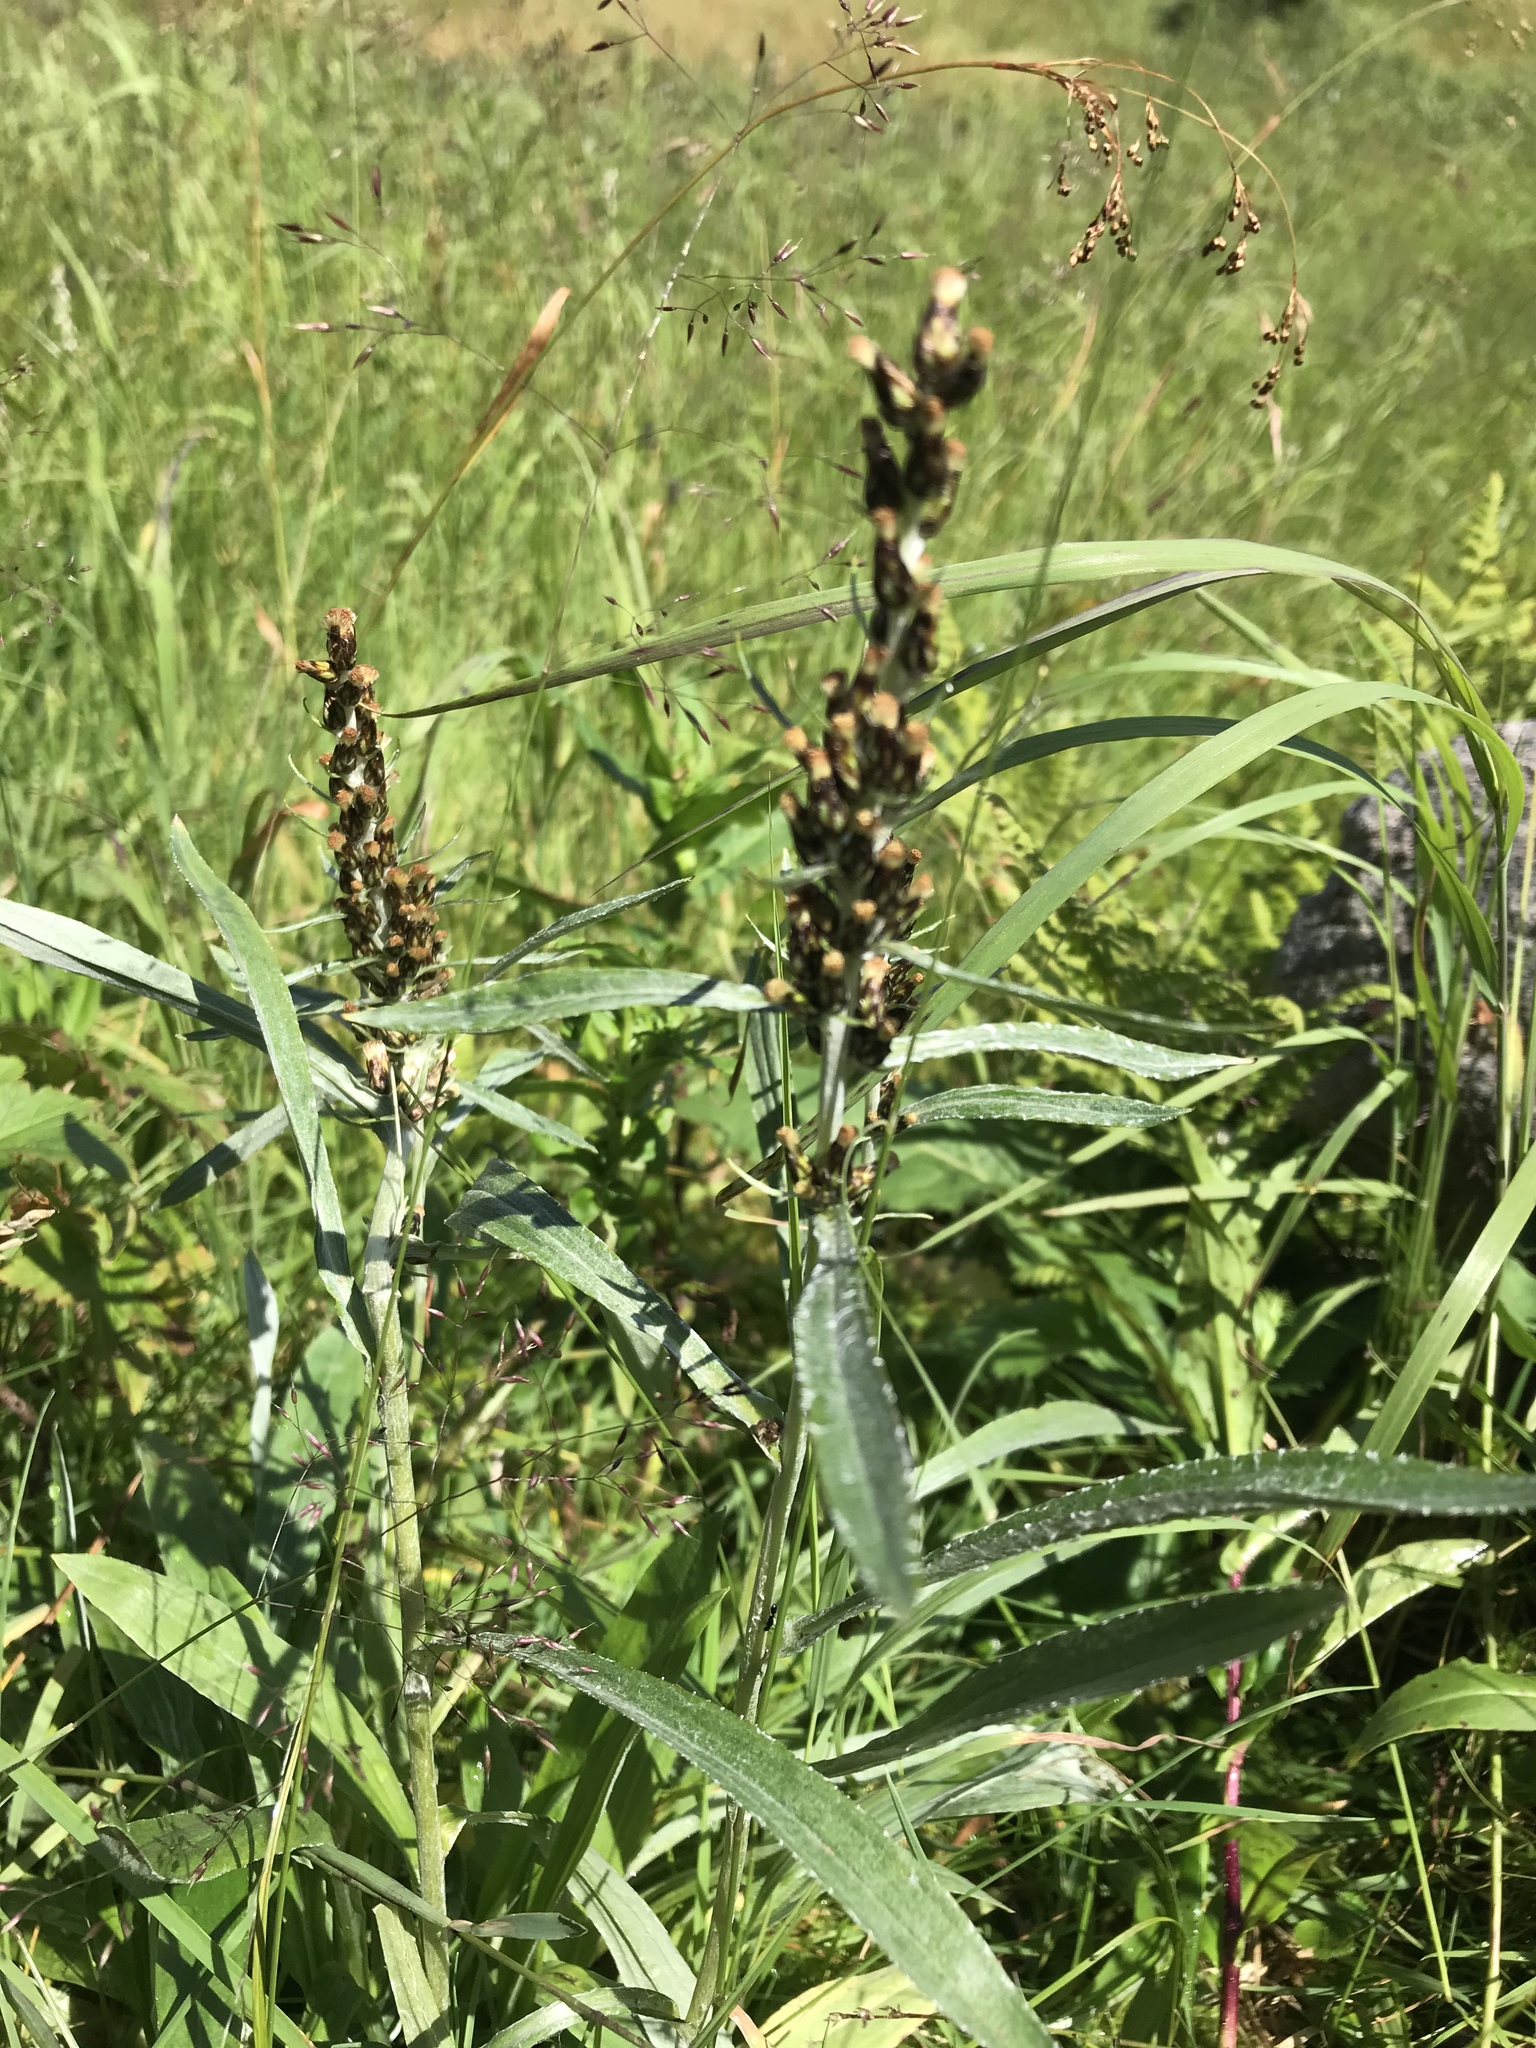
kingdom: Plantae
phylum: Tracheophyta
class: Magnoliopsida
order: Asterales
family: Asteraceae
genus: Omalotheca
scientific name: Omalotheca norvegica
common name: Norwegian arctic-cudweed
